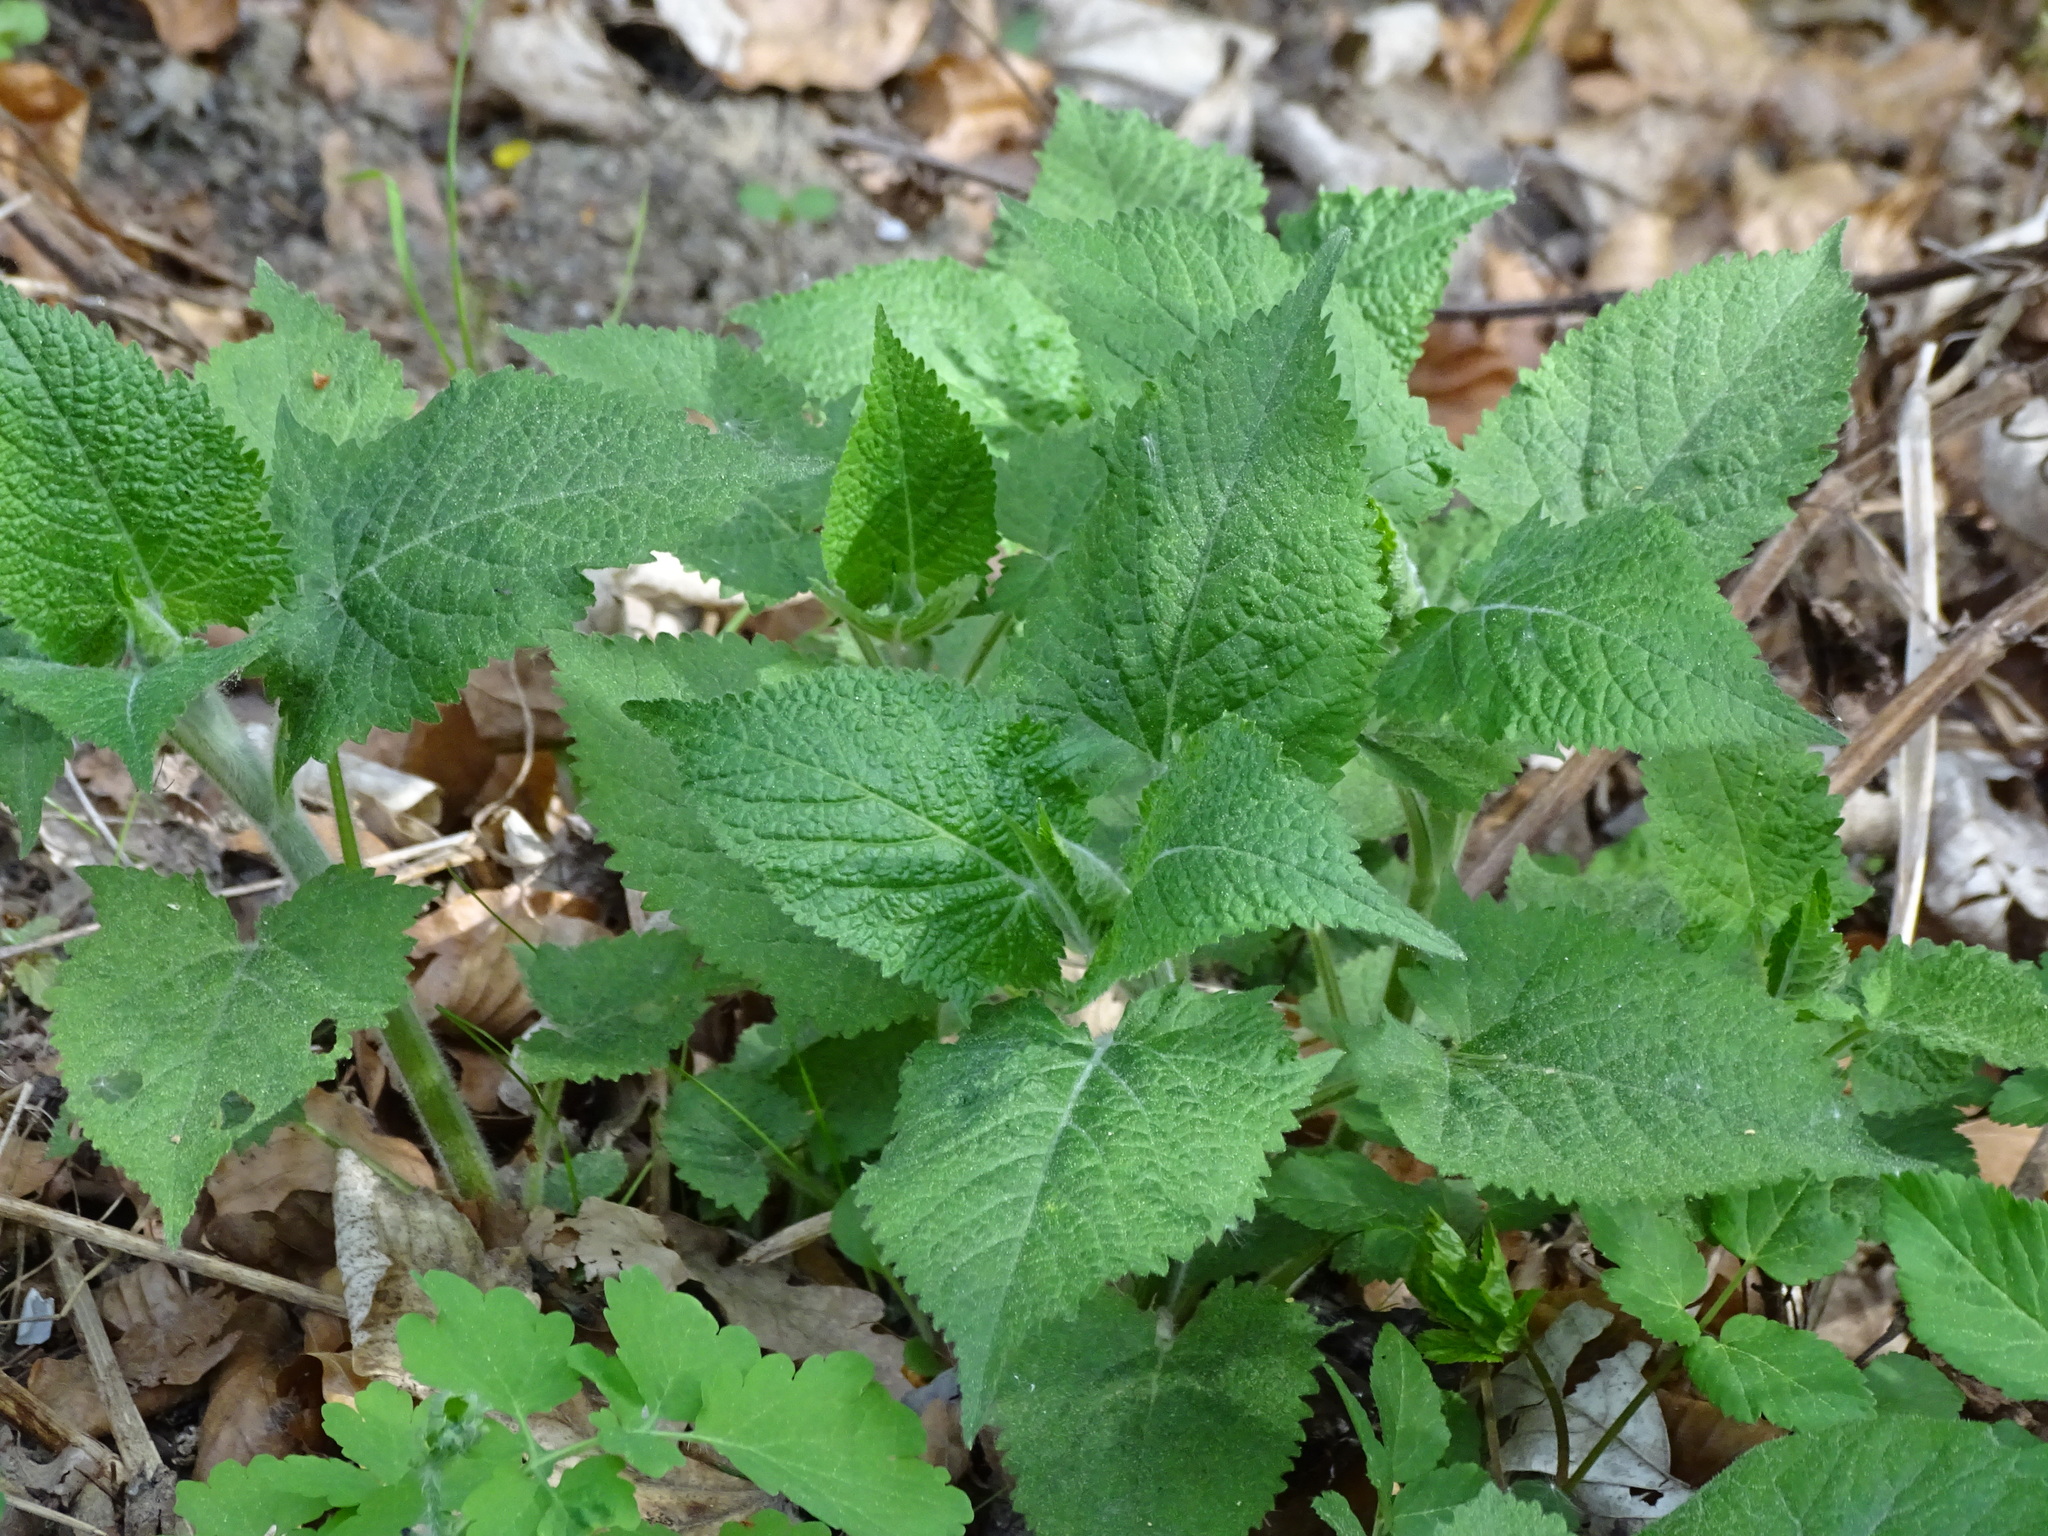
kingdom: Plantae
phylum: Tracheophyta
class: Magnoliopsida
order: Lamiales
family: Lamiaceae
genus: Salvia
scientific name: Salvia glutinosa
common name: Sticky clary
